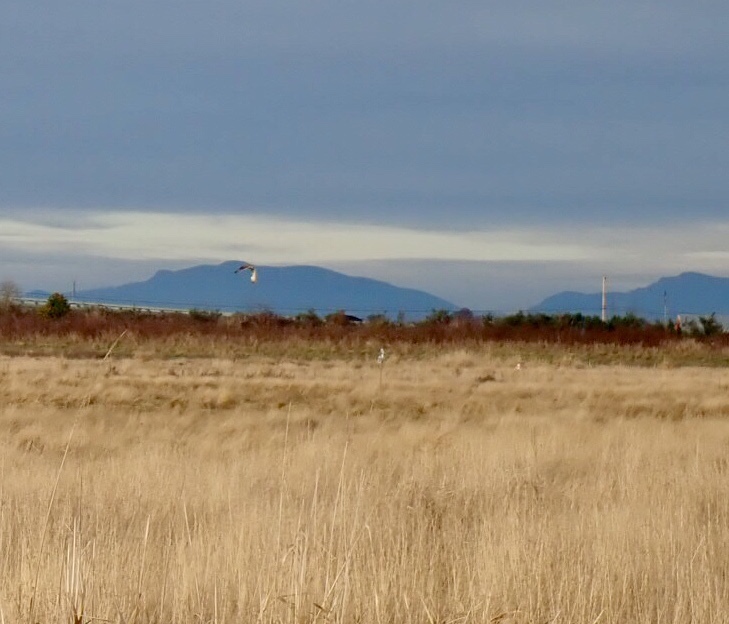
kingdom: Animalia
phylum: Chordata
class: Aves
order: Strigiformes
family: Strigidae
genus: Asio
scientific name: Asio flammeus
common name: Short-eared owl
